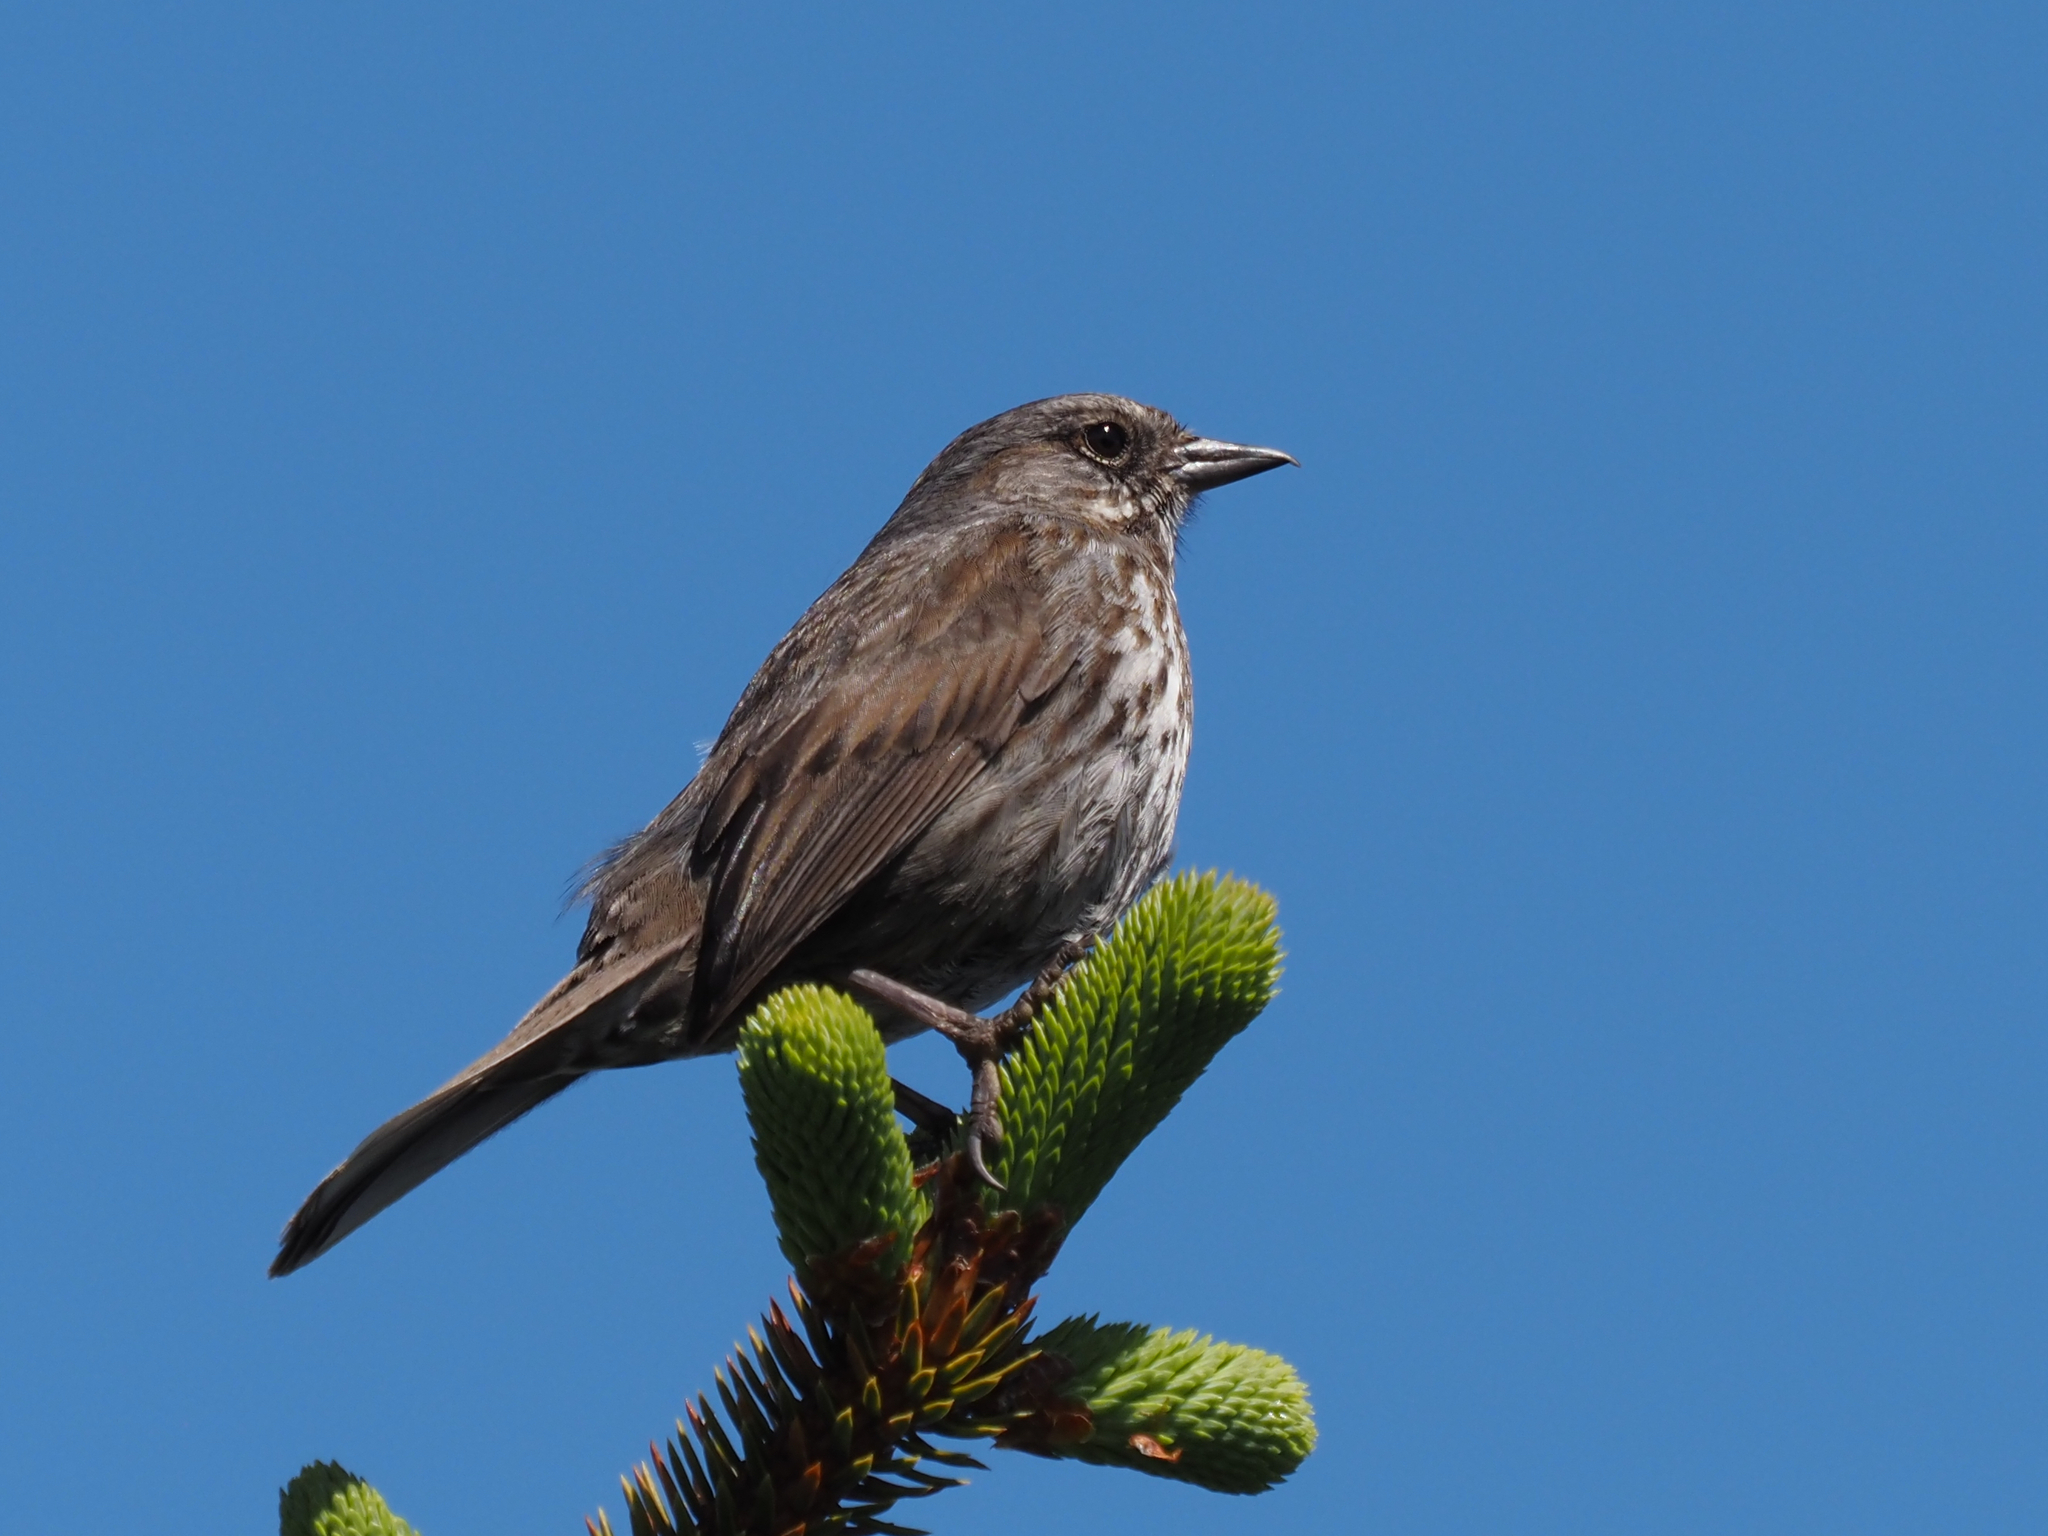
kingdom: Animalia
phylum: Chordata
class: Aves
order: Passeriformes
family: Passerellidae
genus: Melospiza
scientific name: Melospiza melodia
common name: Song sparrow
